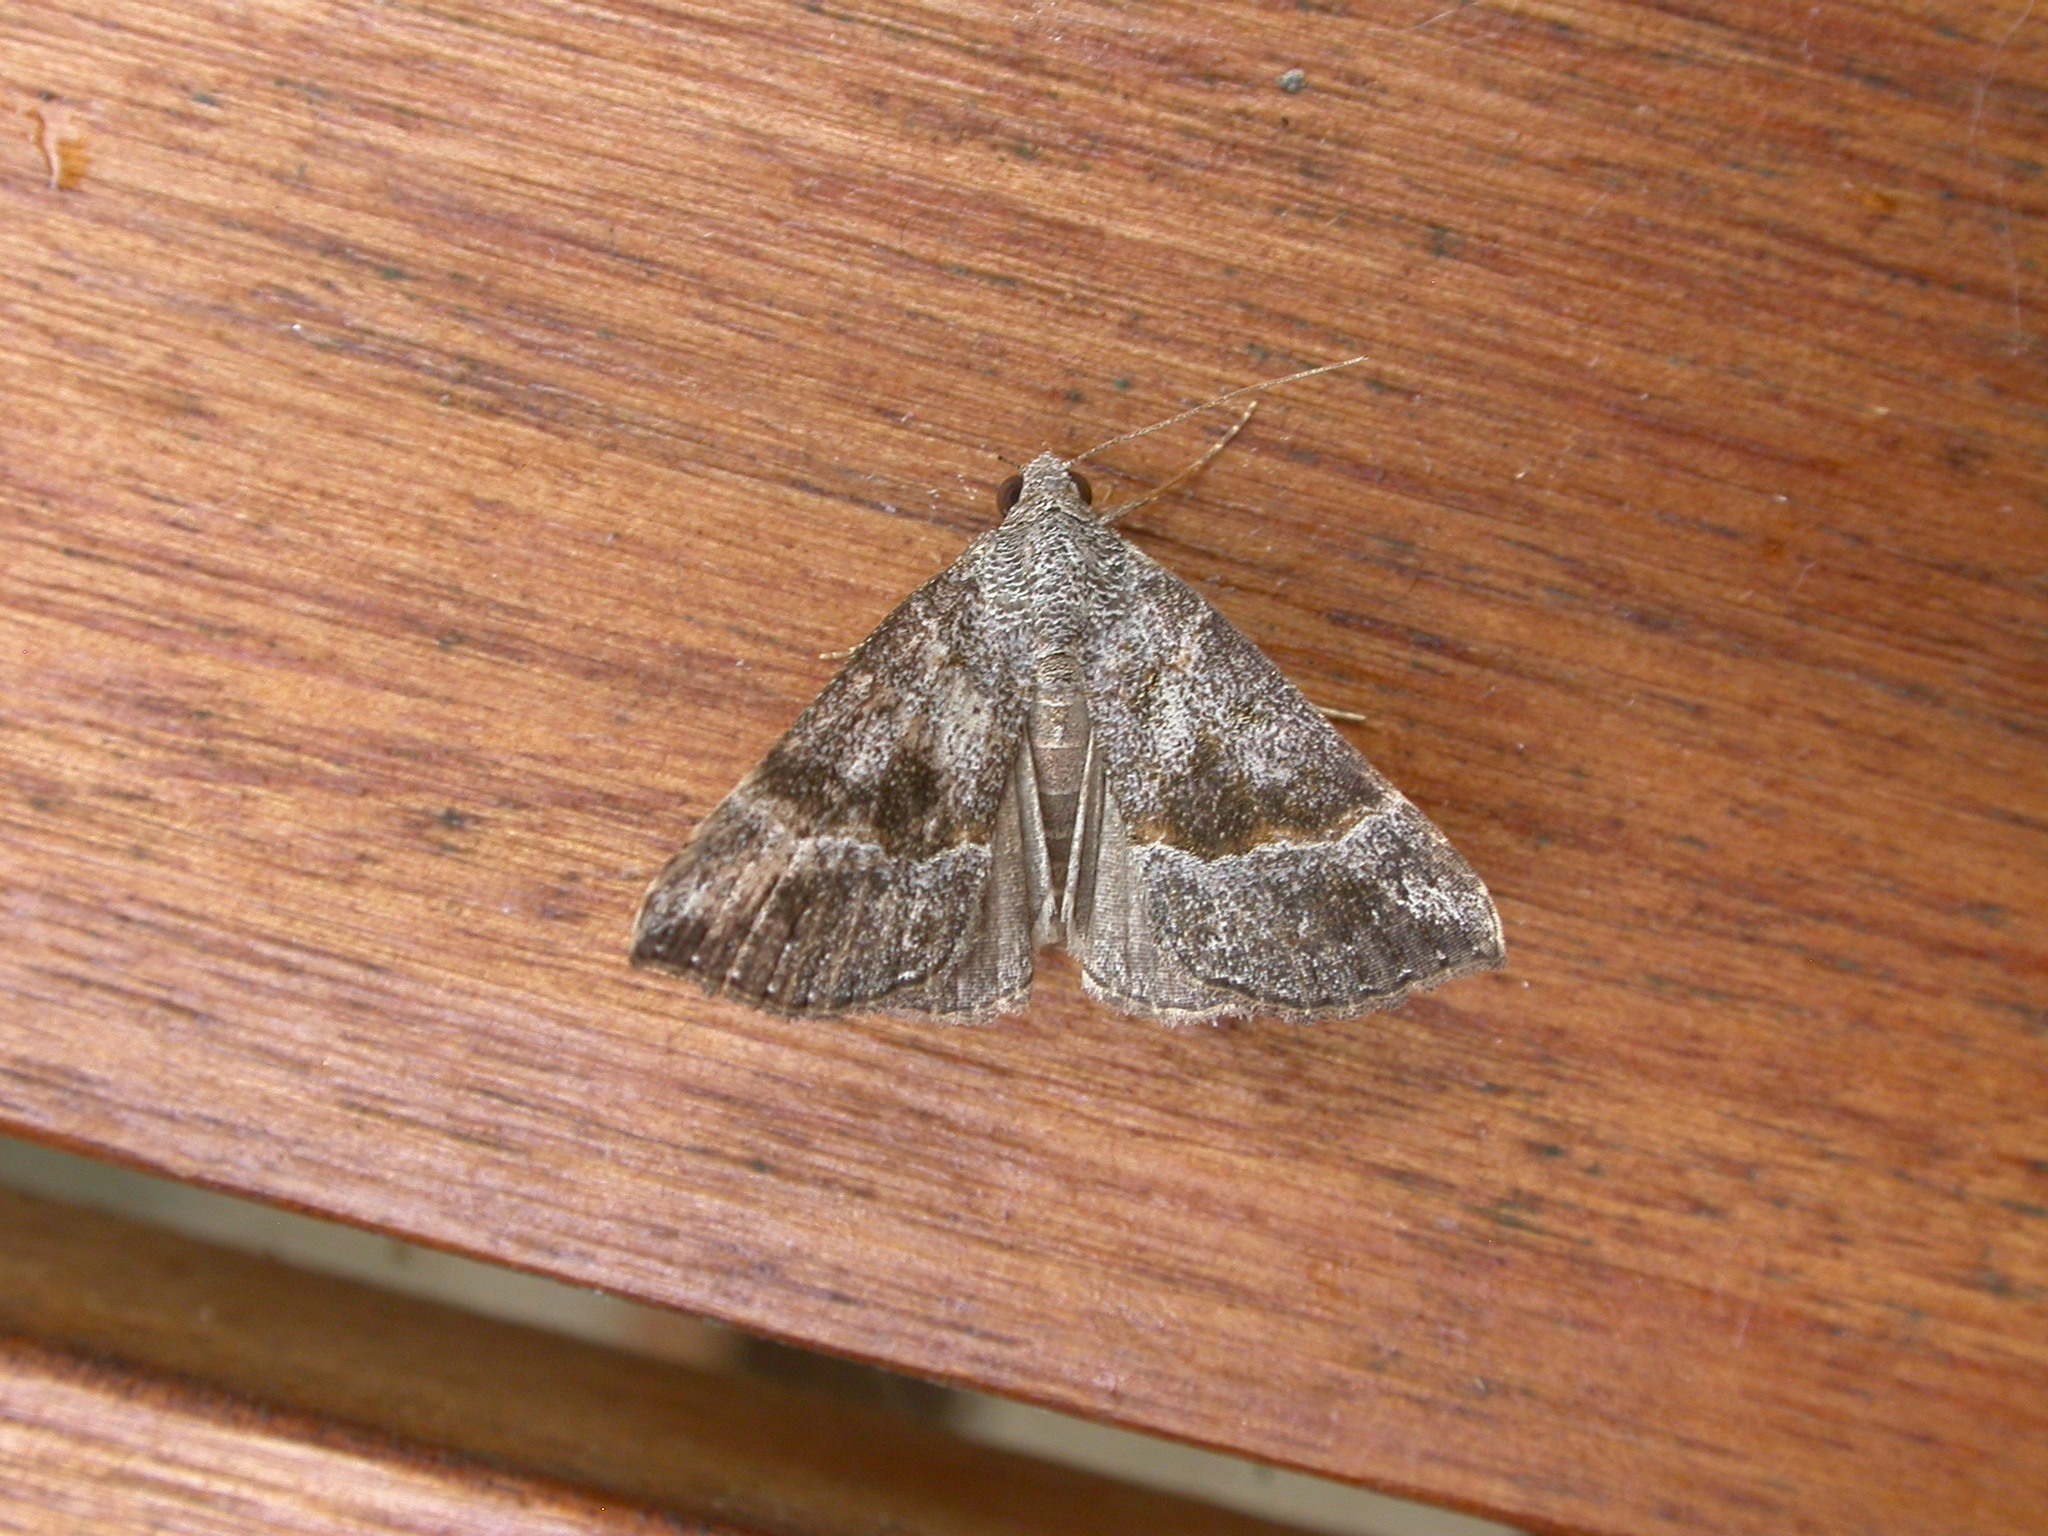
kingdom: Animalia
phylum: Arthropoda
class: Insecta
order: Lepidoptera
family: Erebidae
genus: Hypena
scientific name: Hypena commixtalis
